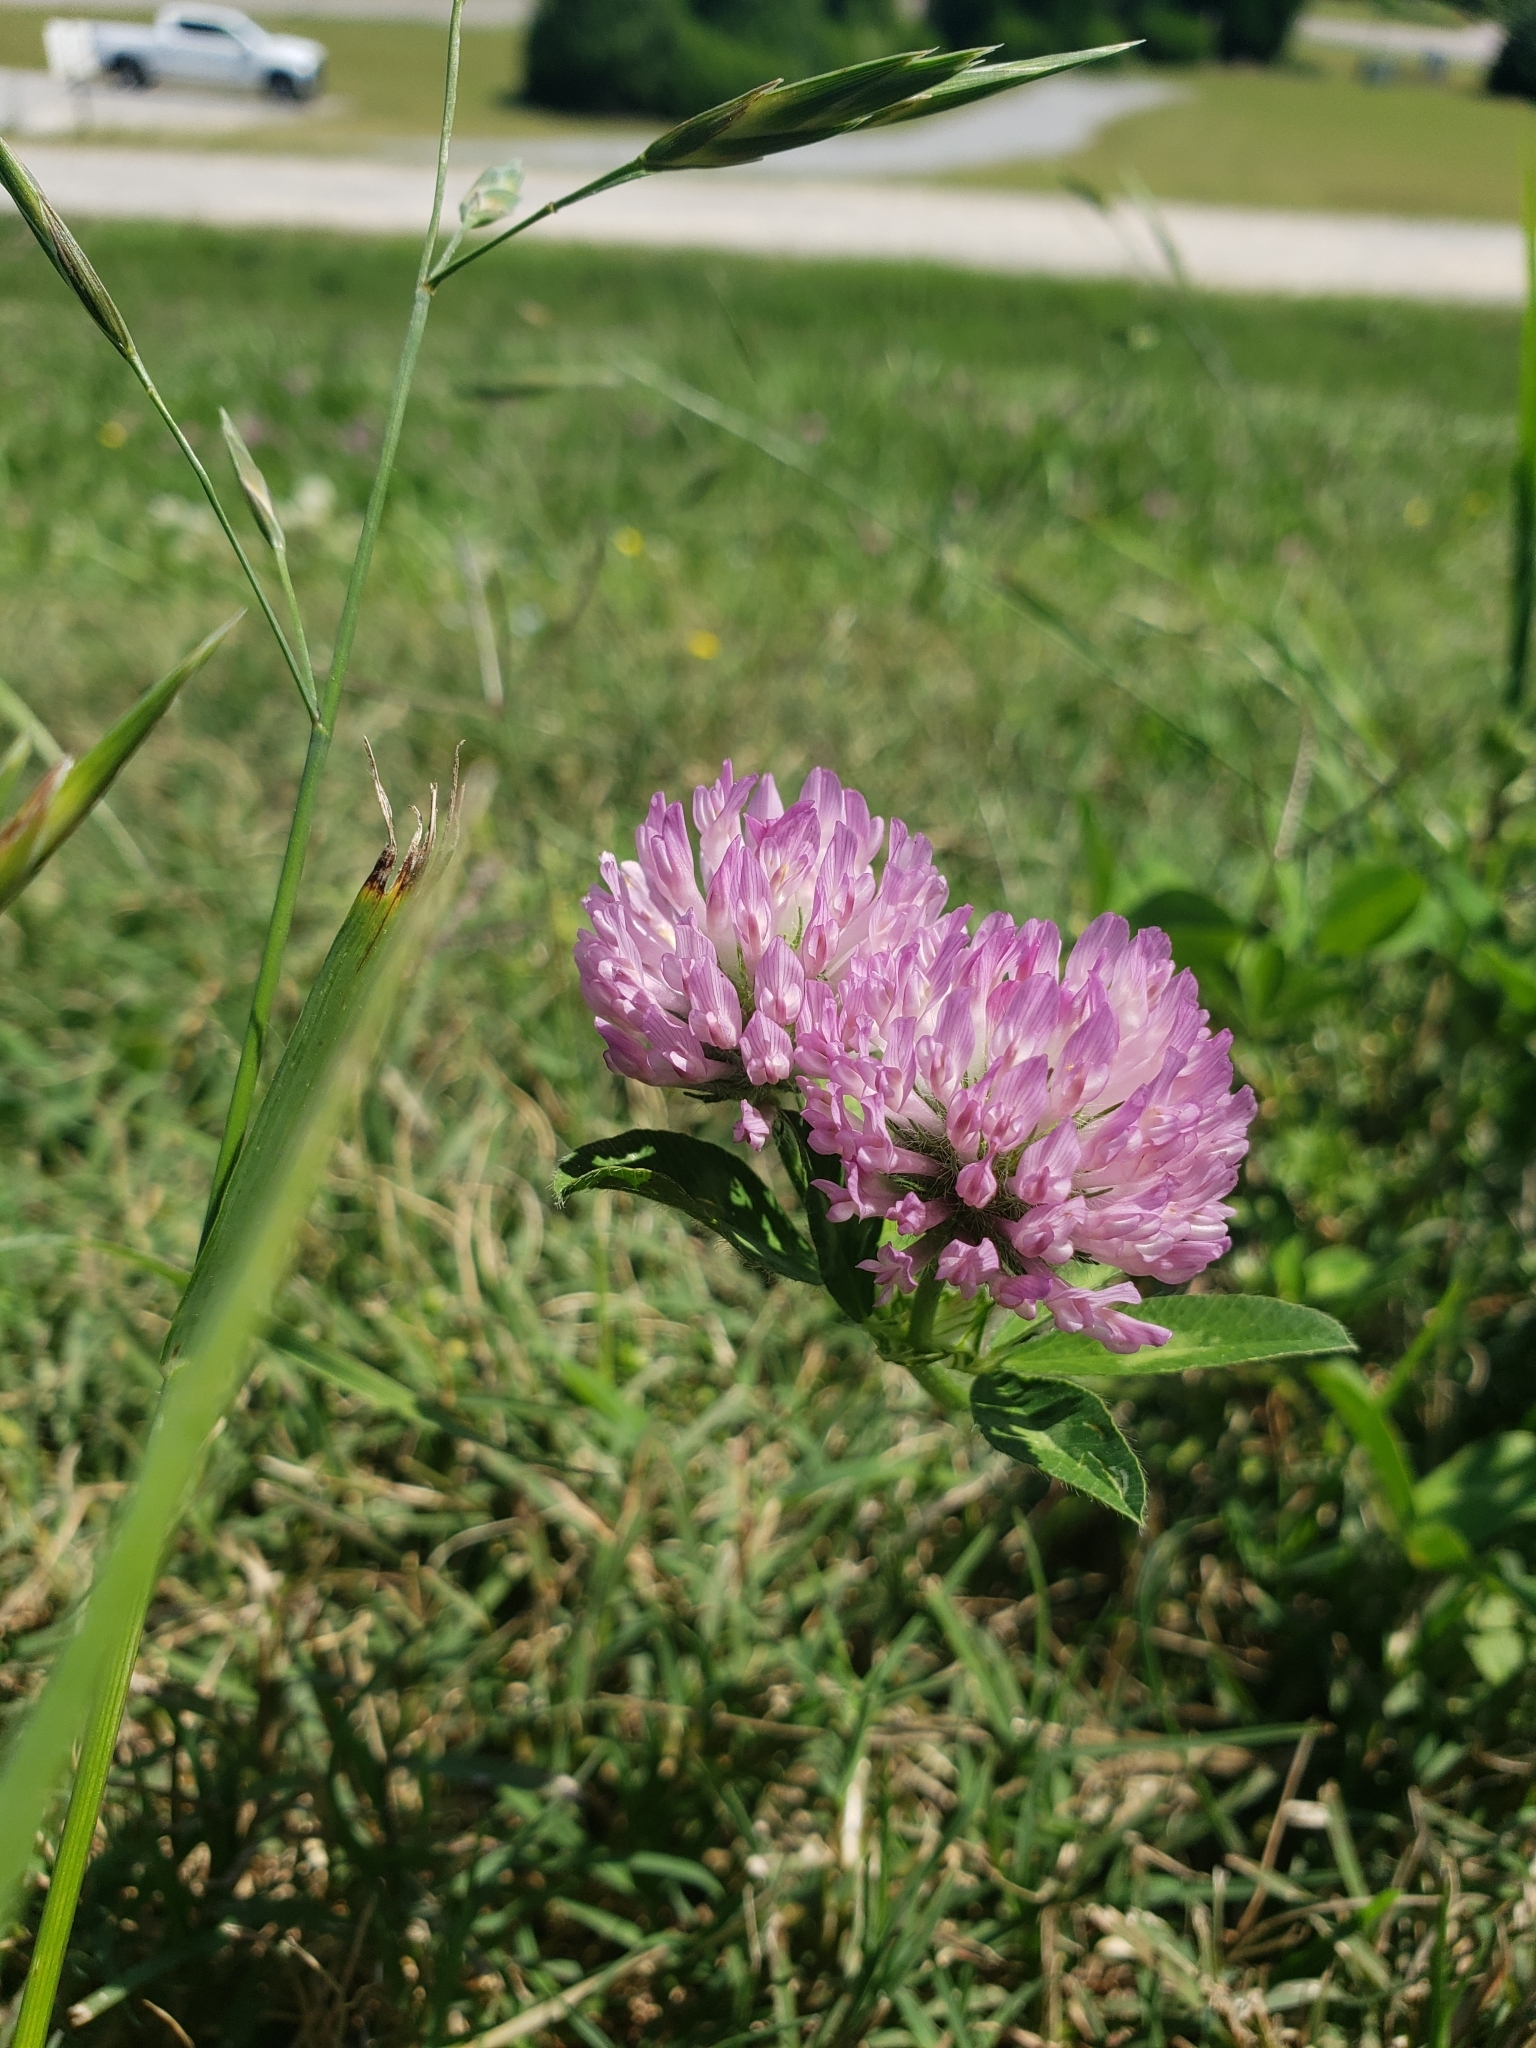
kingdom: Plantae
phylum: Tracheophyta
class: Magnoliopsida
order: Fabales
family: Fabaceae
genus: Trifolium
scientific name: Trifolium pratense
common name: Red clover
